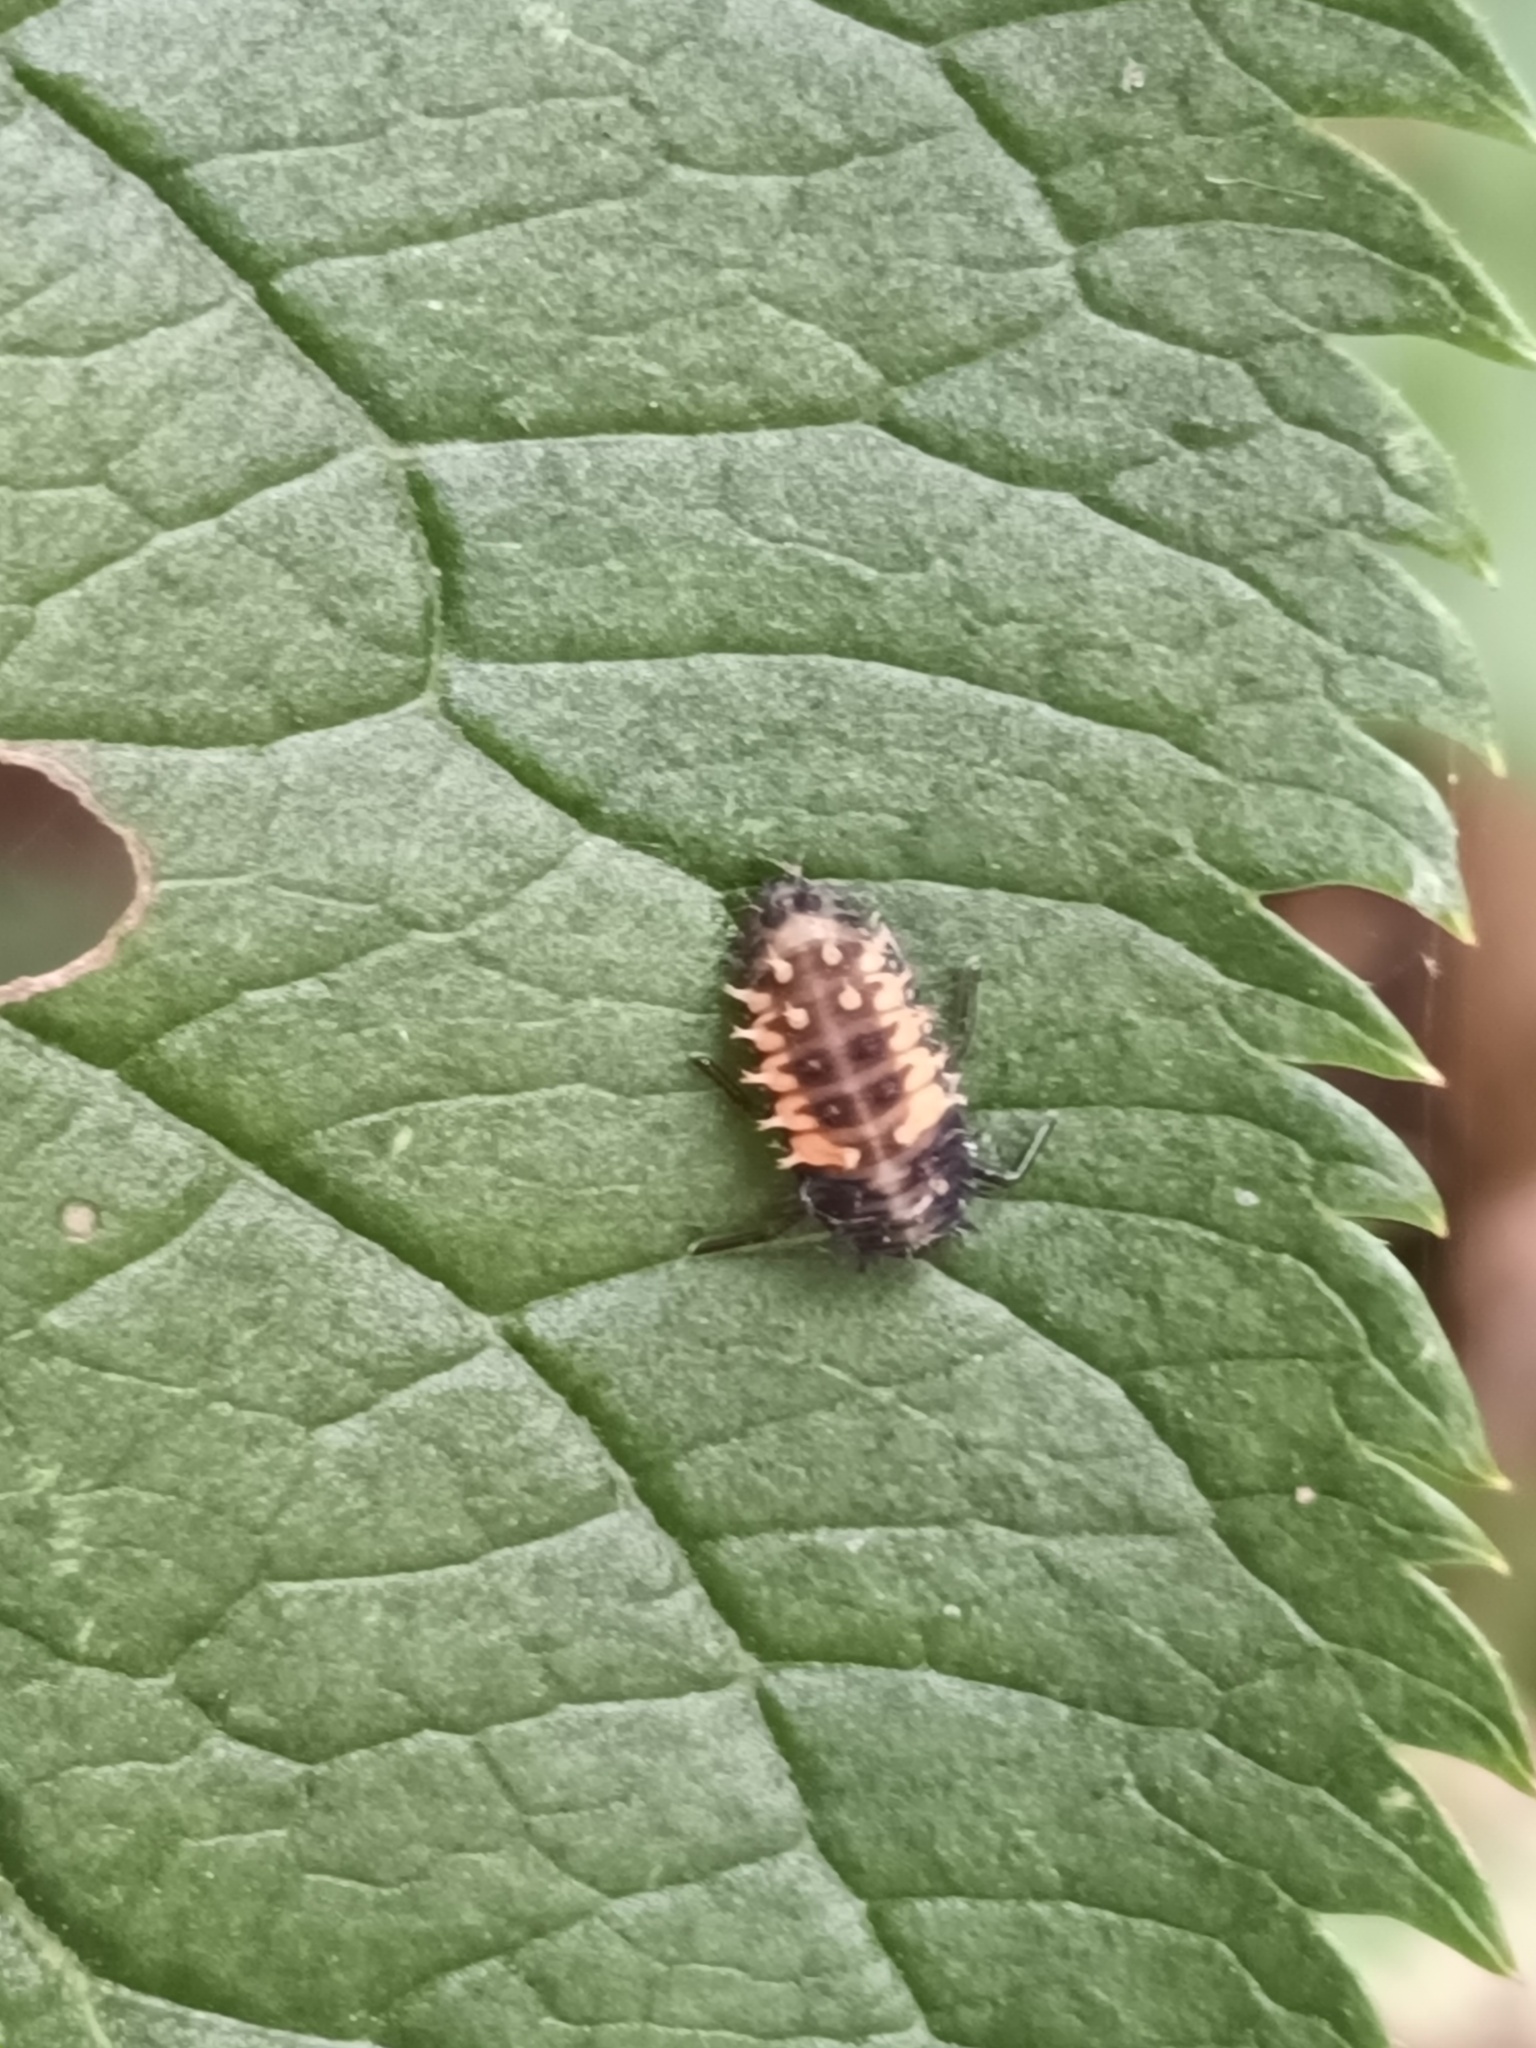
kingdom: Animalia
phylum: Arthropoda
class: Insecta
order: Coleoptera
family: Coccinellidae
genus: Harmonia
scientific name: Harmonia axyridis
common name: Harlequin ladybird
